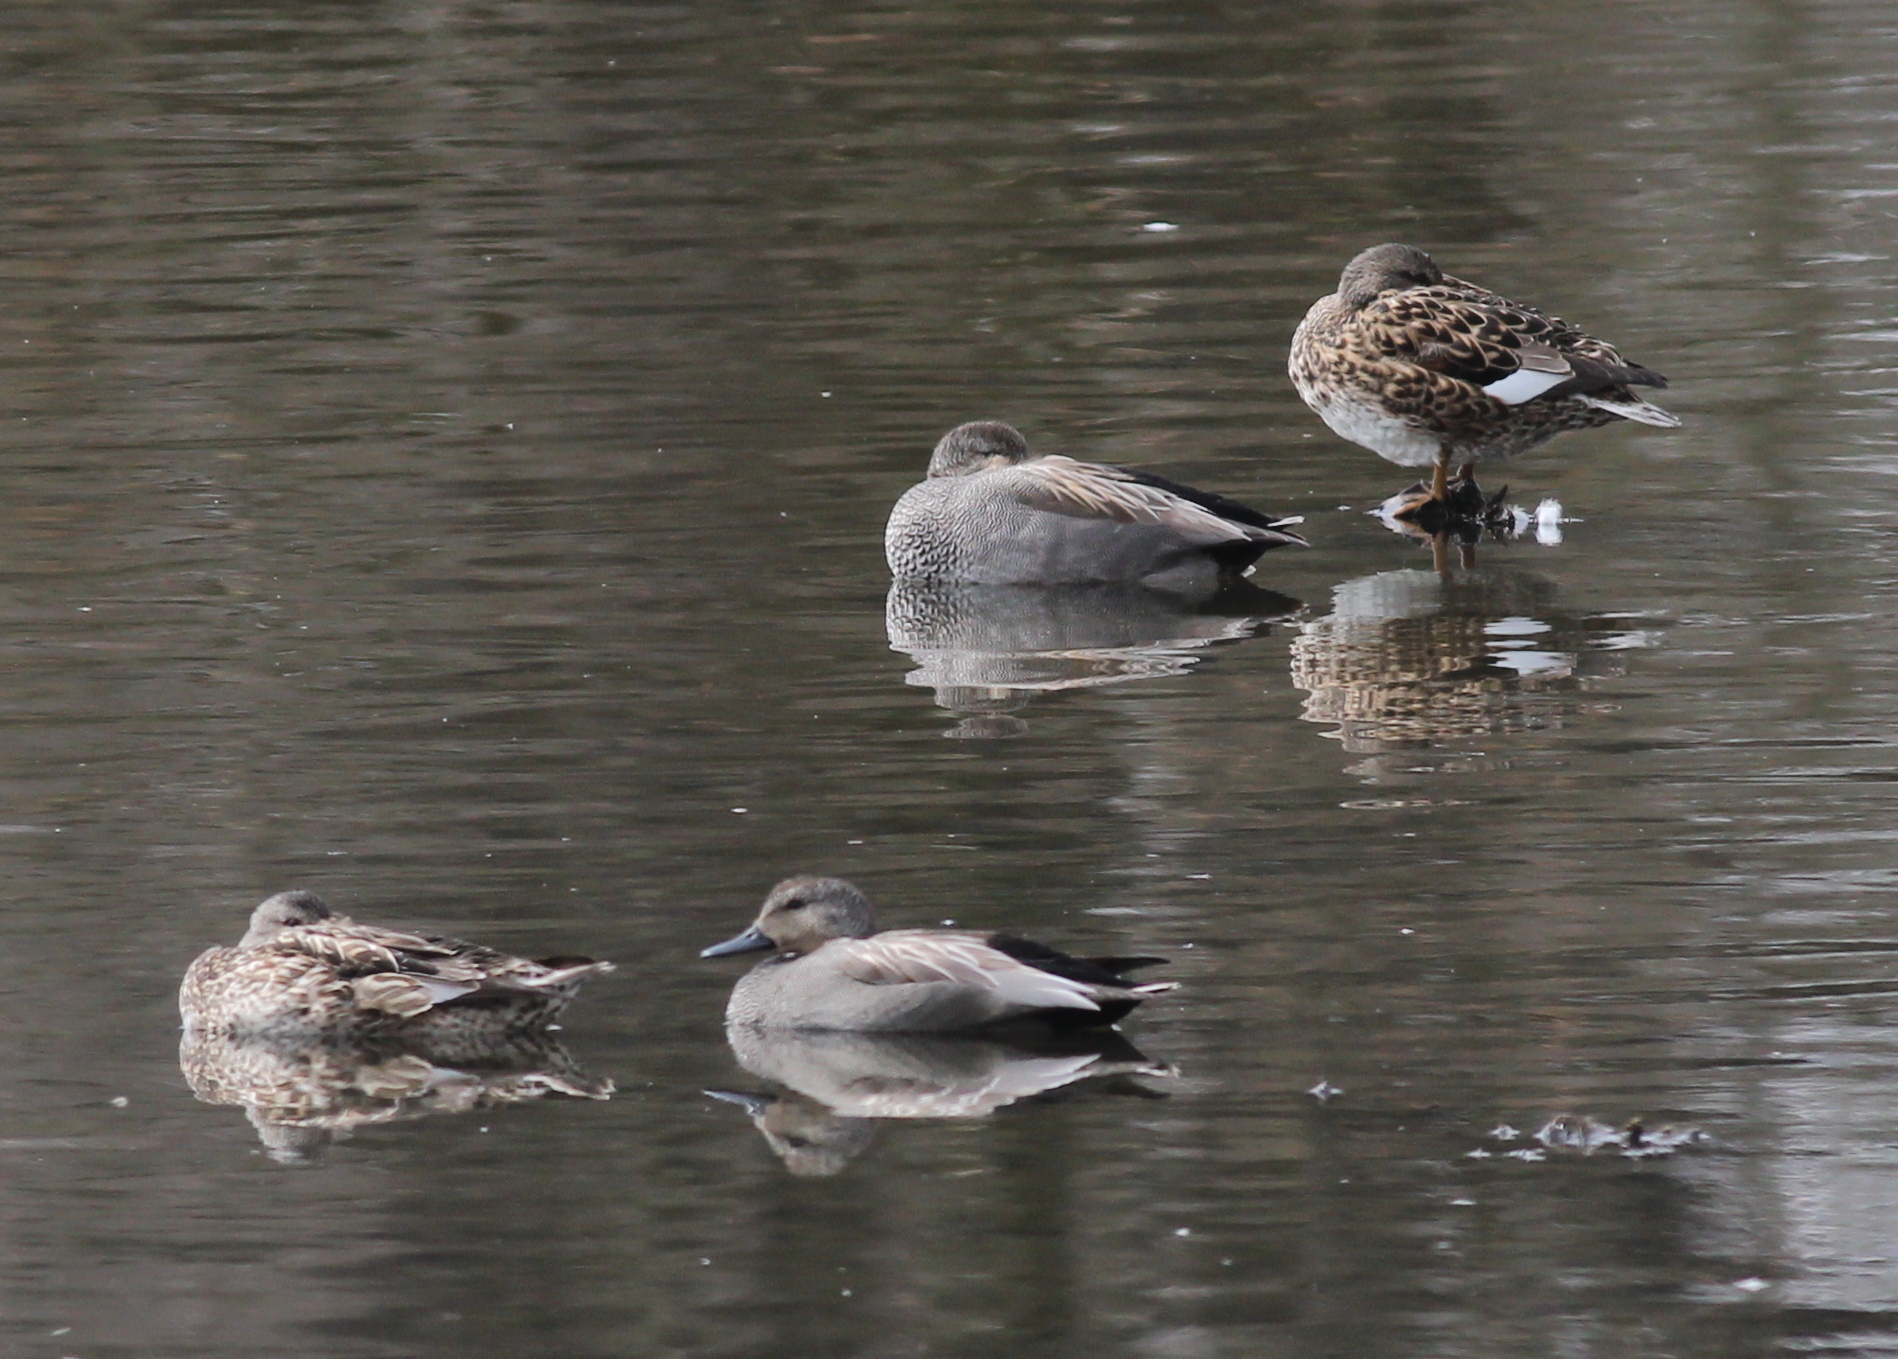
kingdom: Animalia
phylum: Chordata
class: Aves
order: Anseriformes
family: Anatidae
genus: Mareca
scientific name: Mareca strepera
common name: Gadwall
